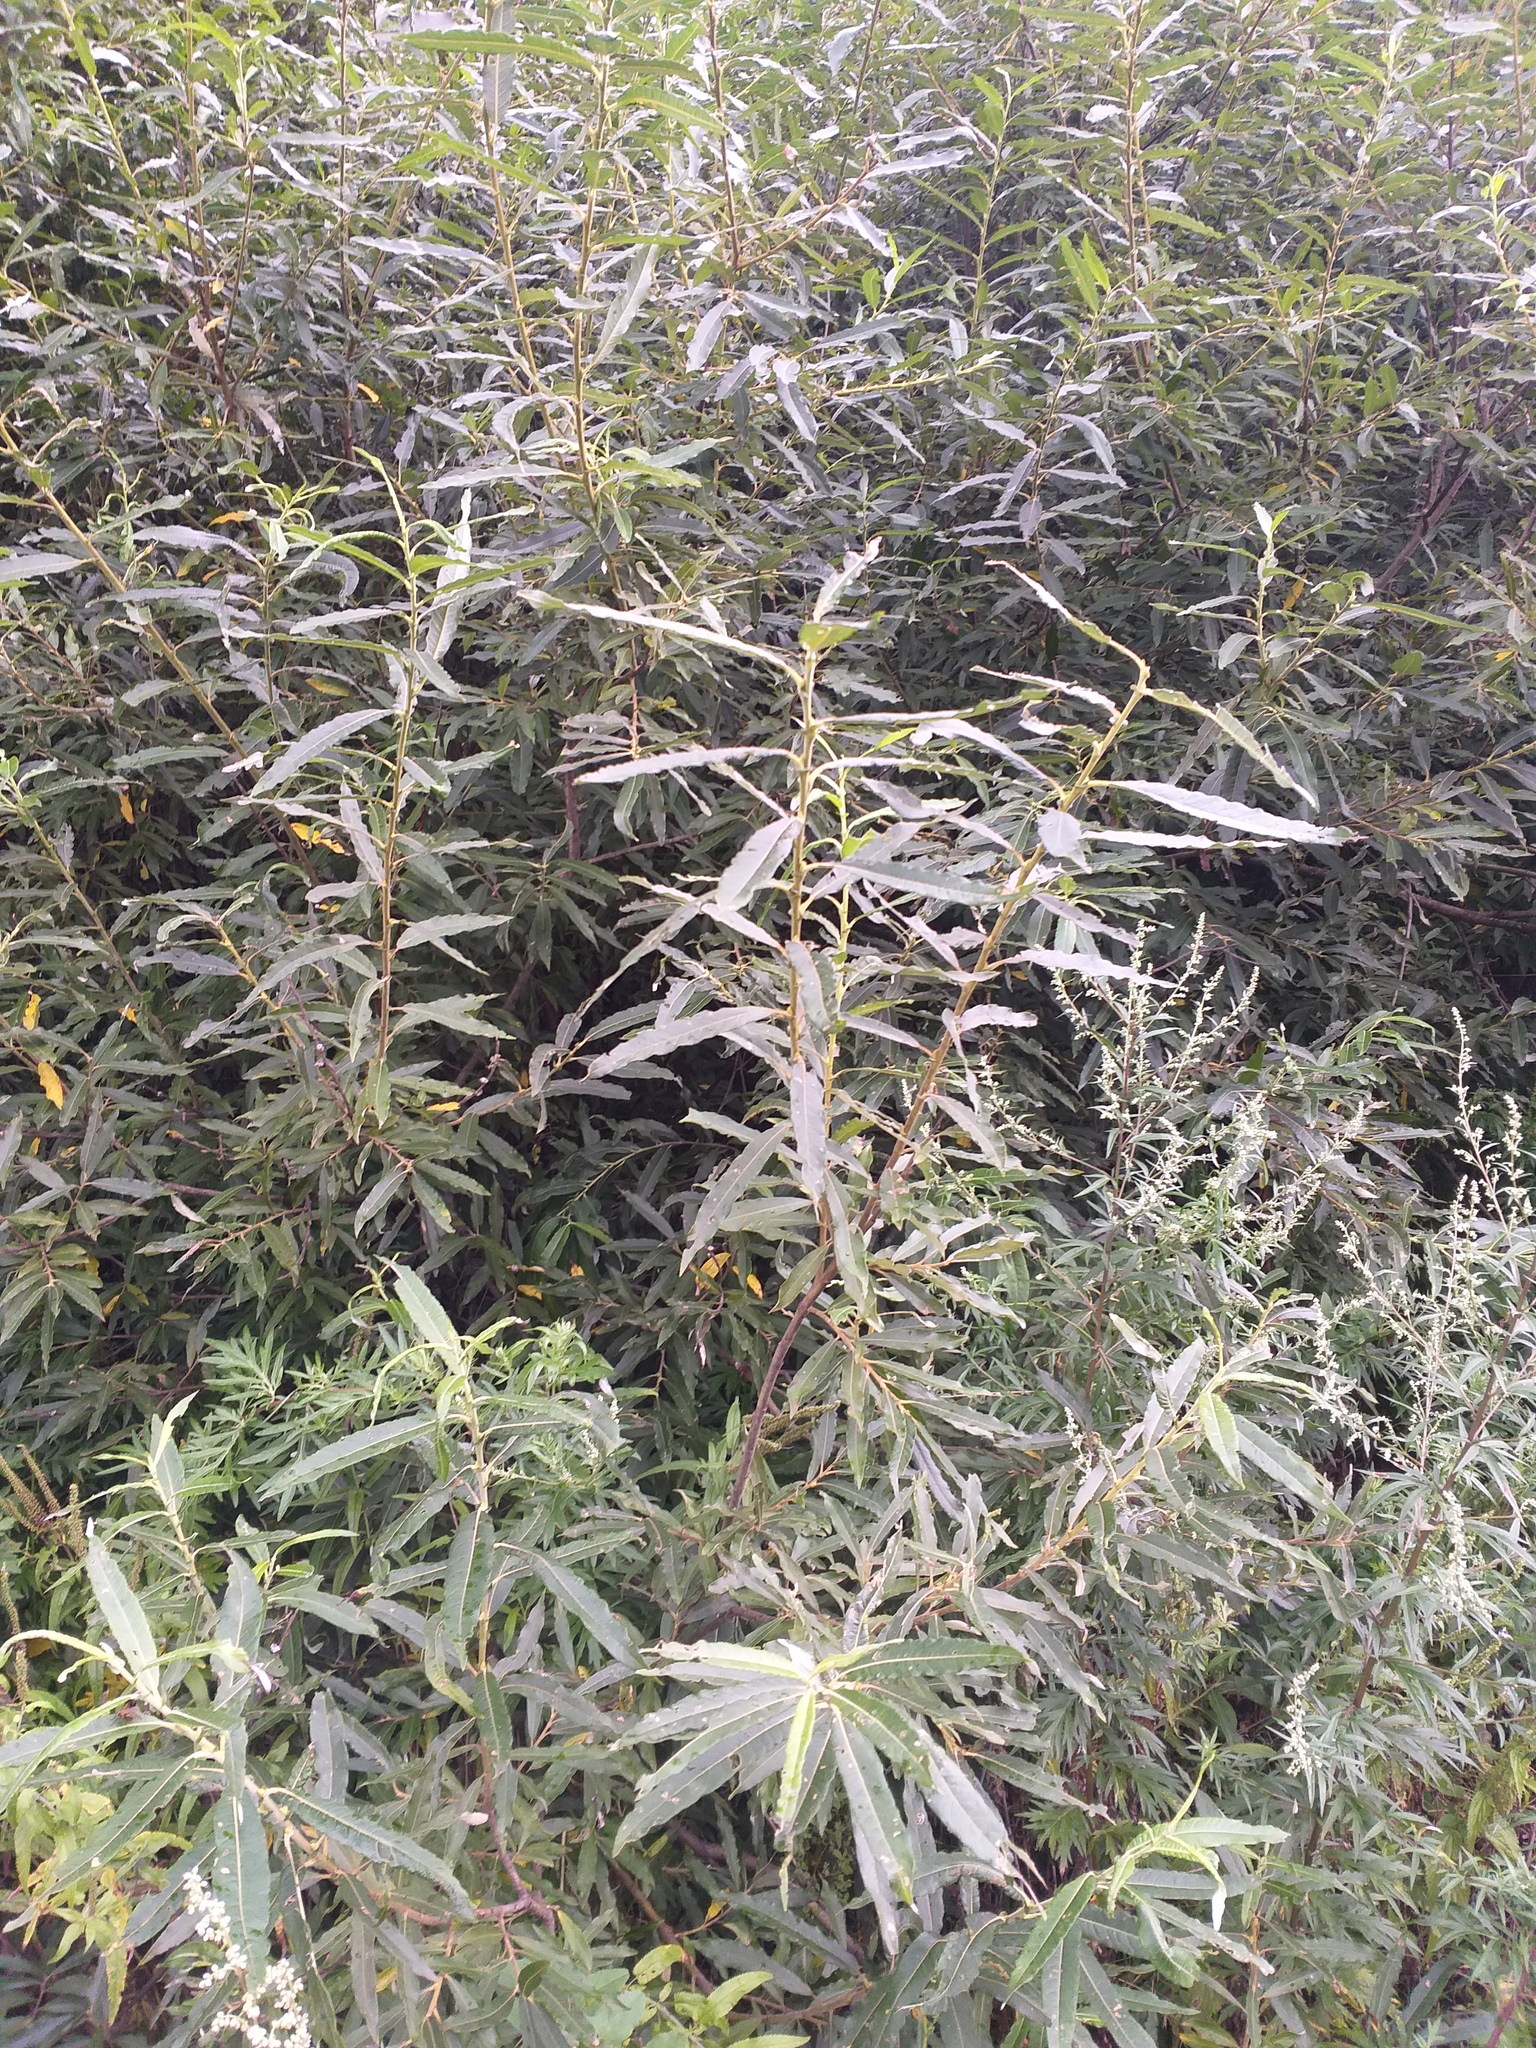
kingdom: Plantae
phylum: Tracheophyta
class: Magnoliopsida
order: Malpighiales
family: Salicaceae
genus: Salix
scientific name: Salix gmelinii
